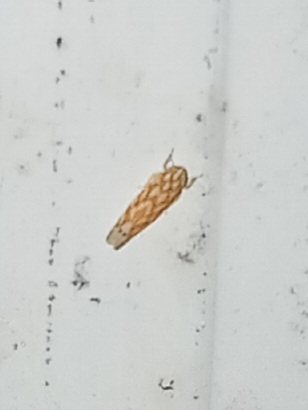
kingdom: Animalia
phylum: Arthropoda
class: Insecta
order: Hemiptera
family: Cicadellidae
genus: Eratoneura
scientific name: Eratoneura comoides
